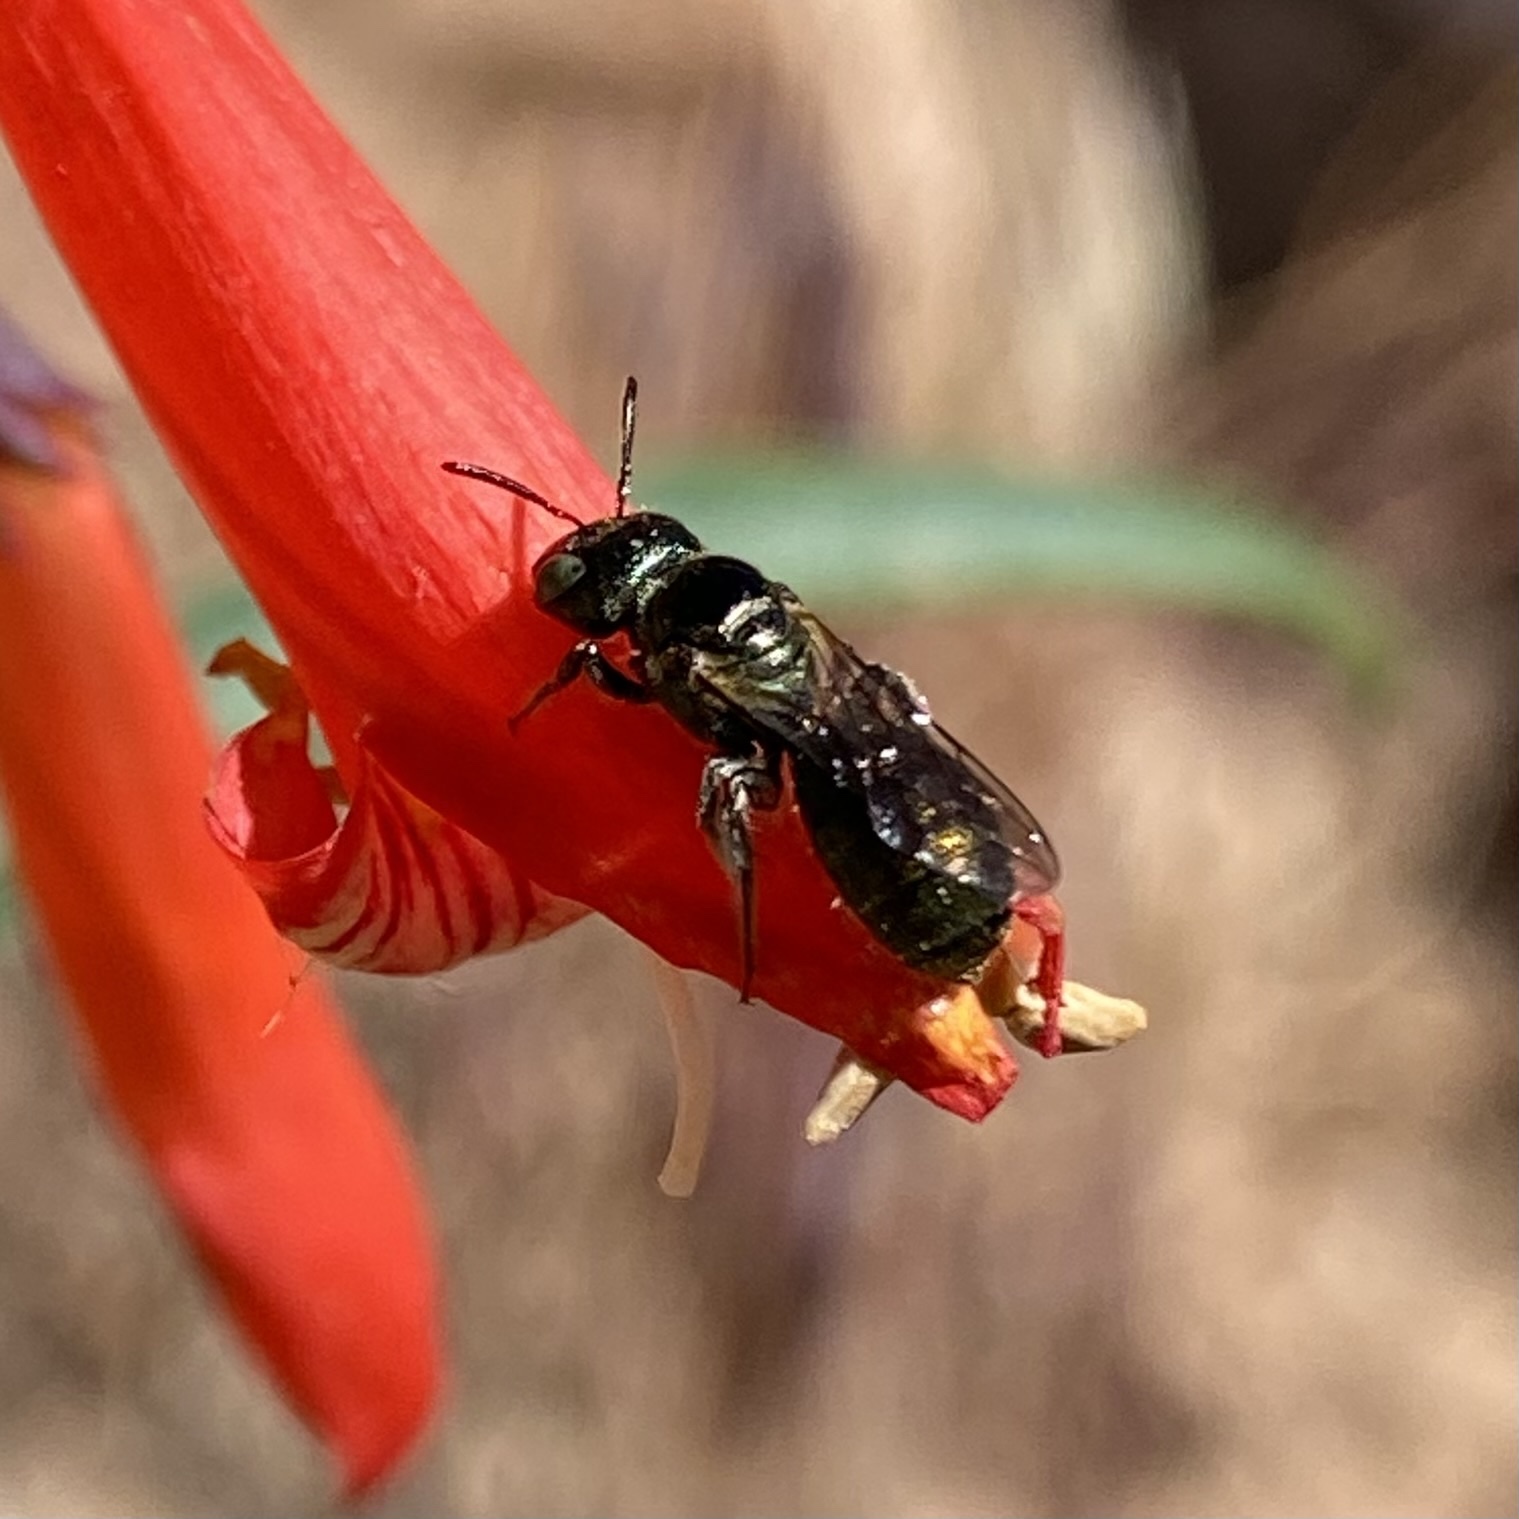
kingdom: Animalia
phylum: Arthropoda
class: Insecta
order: Hymenoptera
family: Apidae
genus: Zadontomerus
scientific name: Zadontomerus
